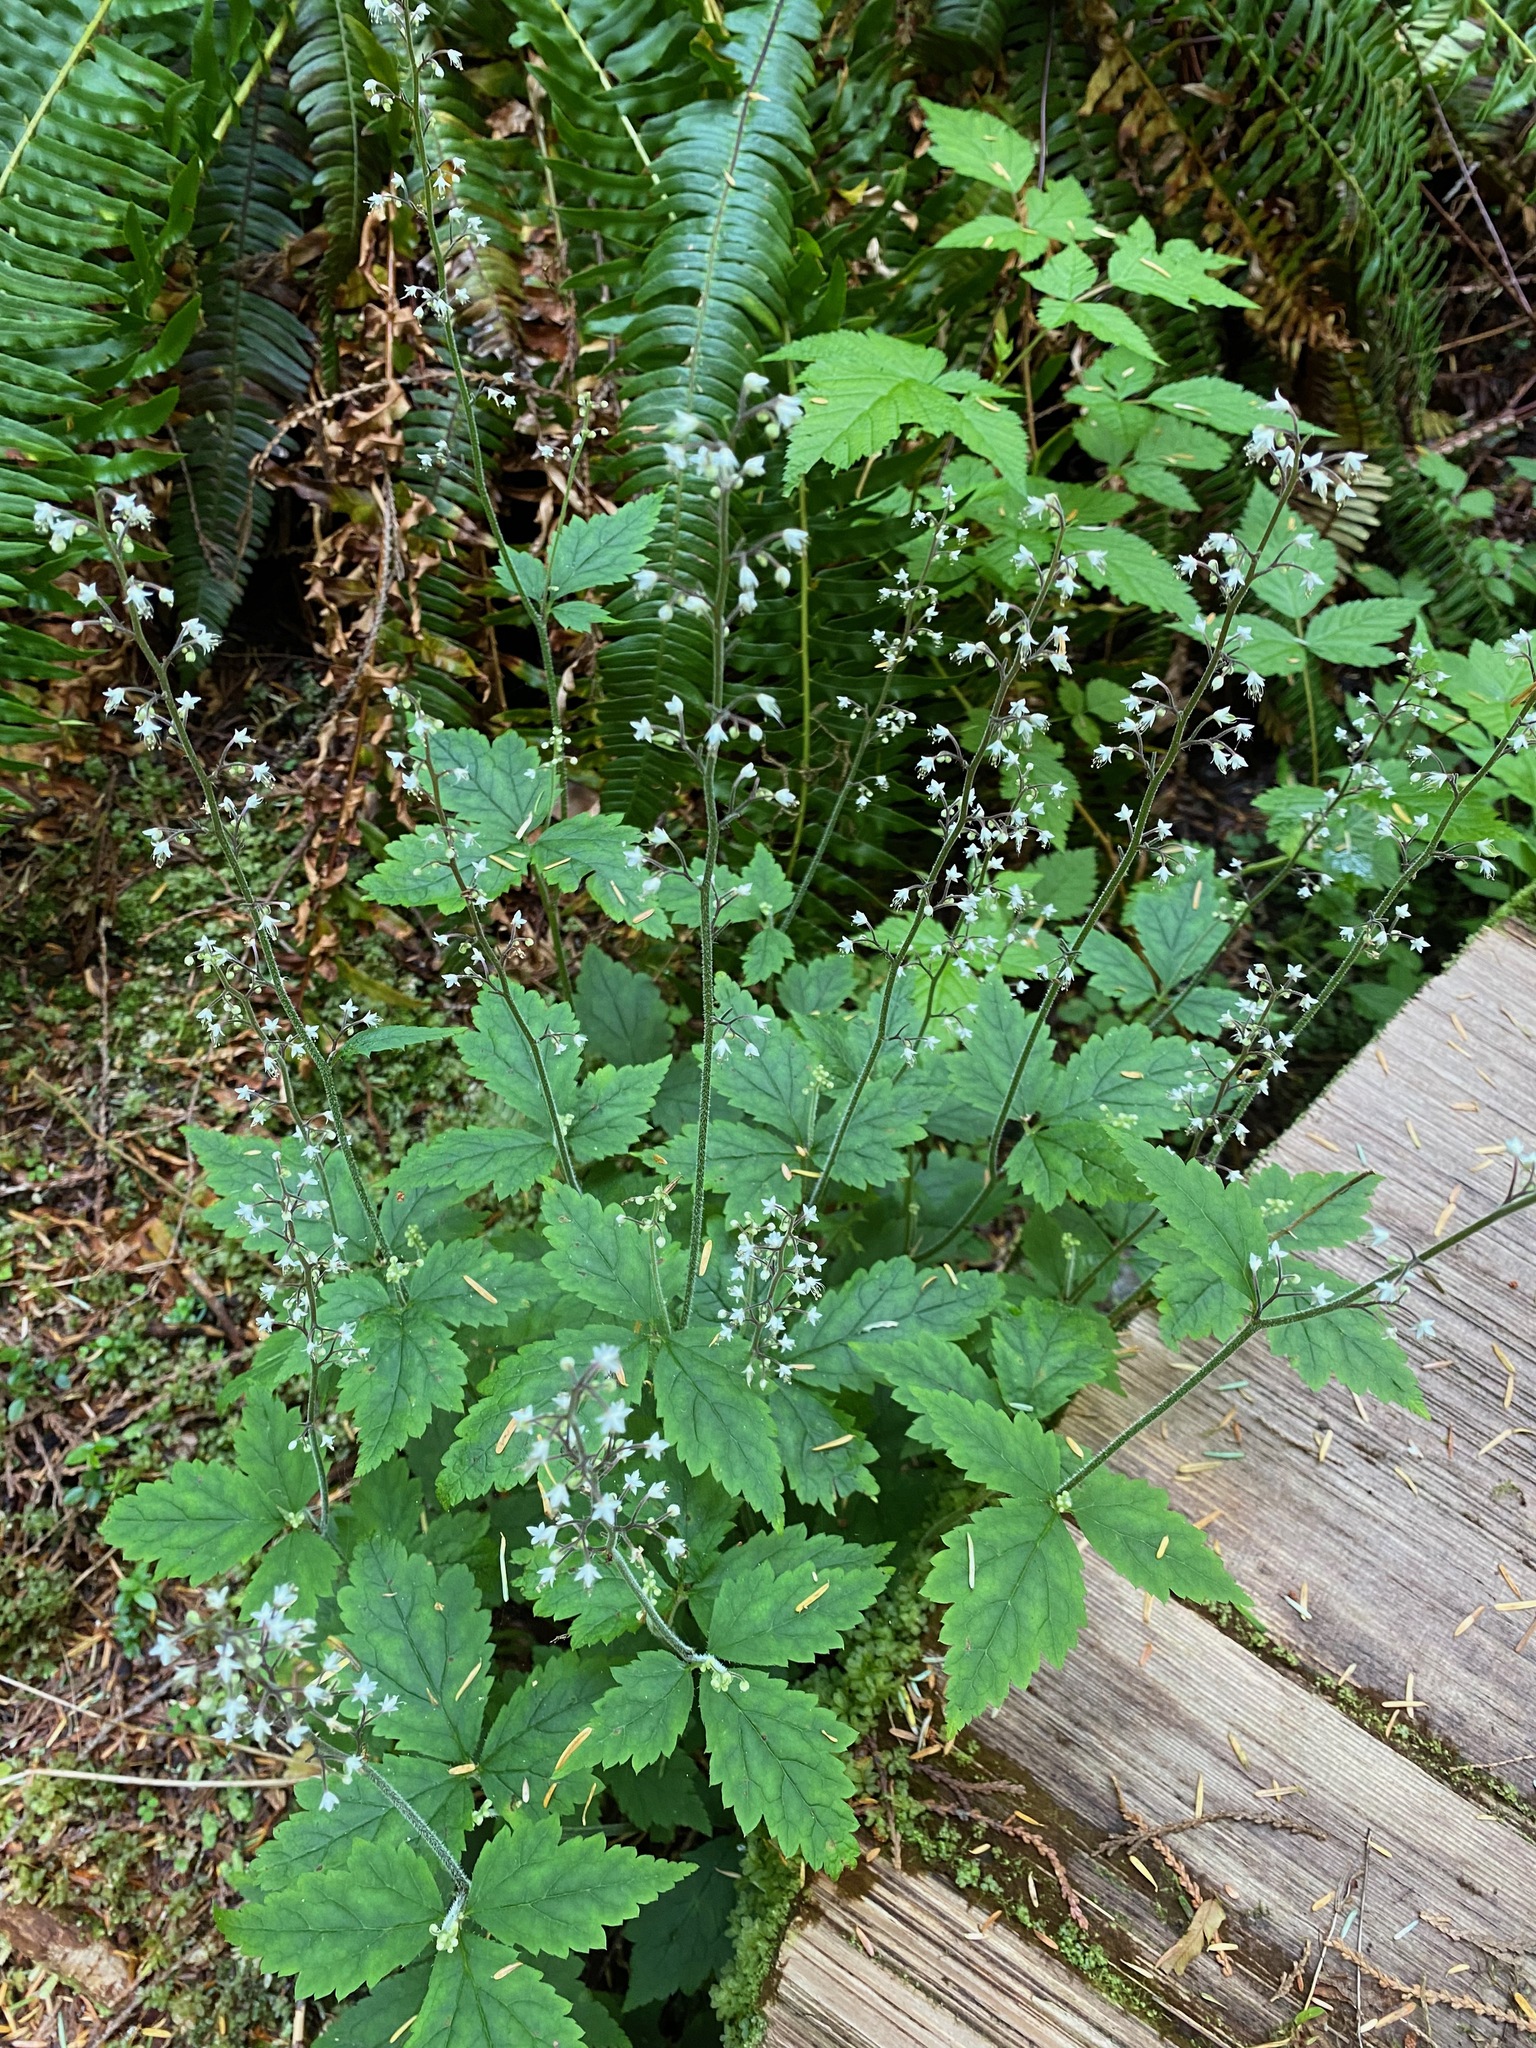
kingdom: Plantae
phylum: Tracheophyta
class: Magnoliopsida
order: Saxifragales
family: Saxifragaceae
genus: Tiarella
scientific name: Tiarella trifoliata
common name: Sugar-scoop
